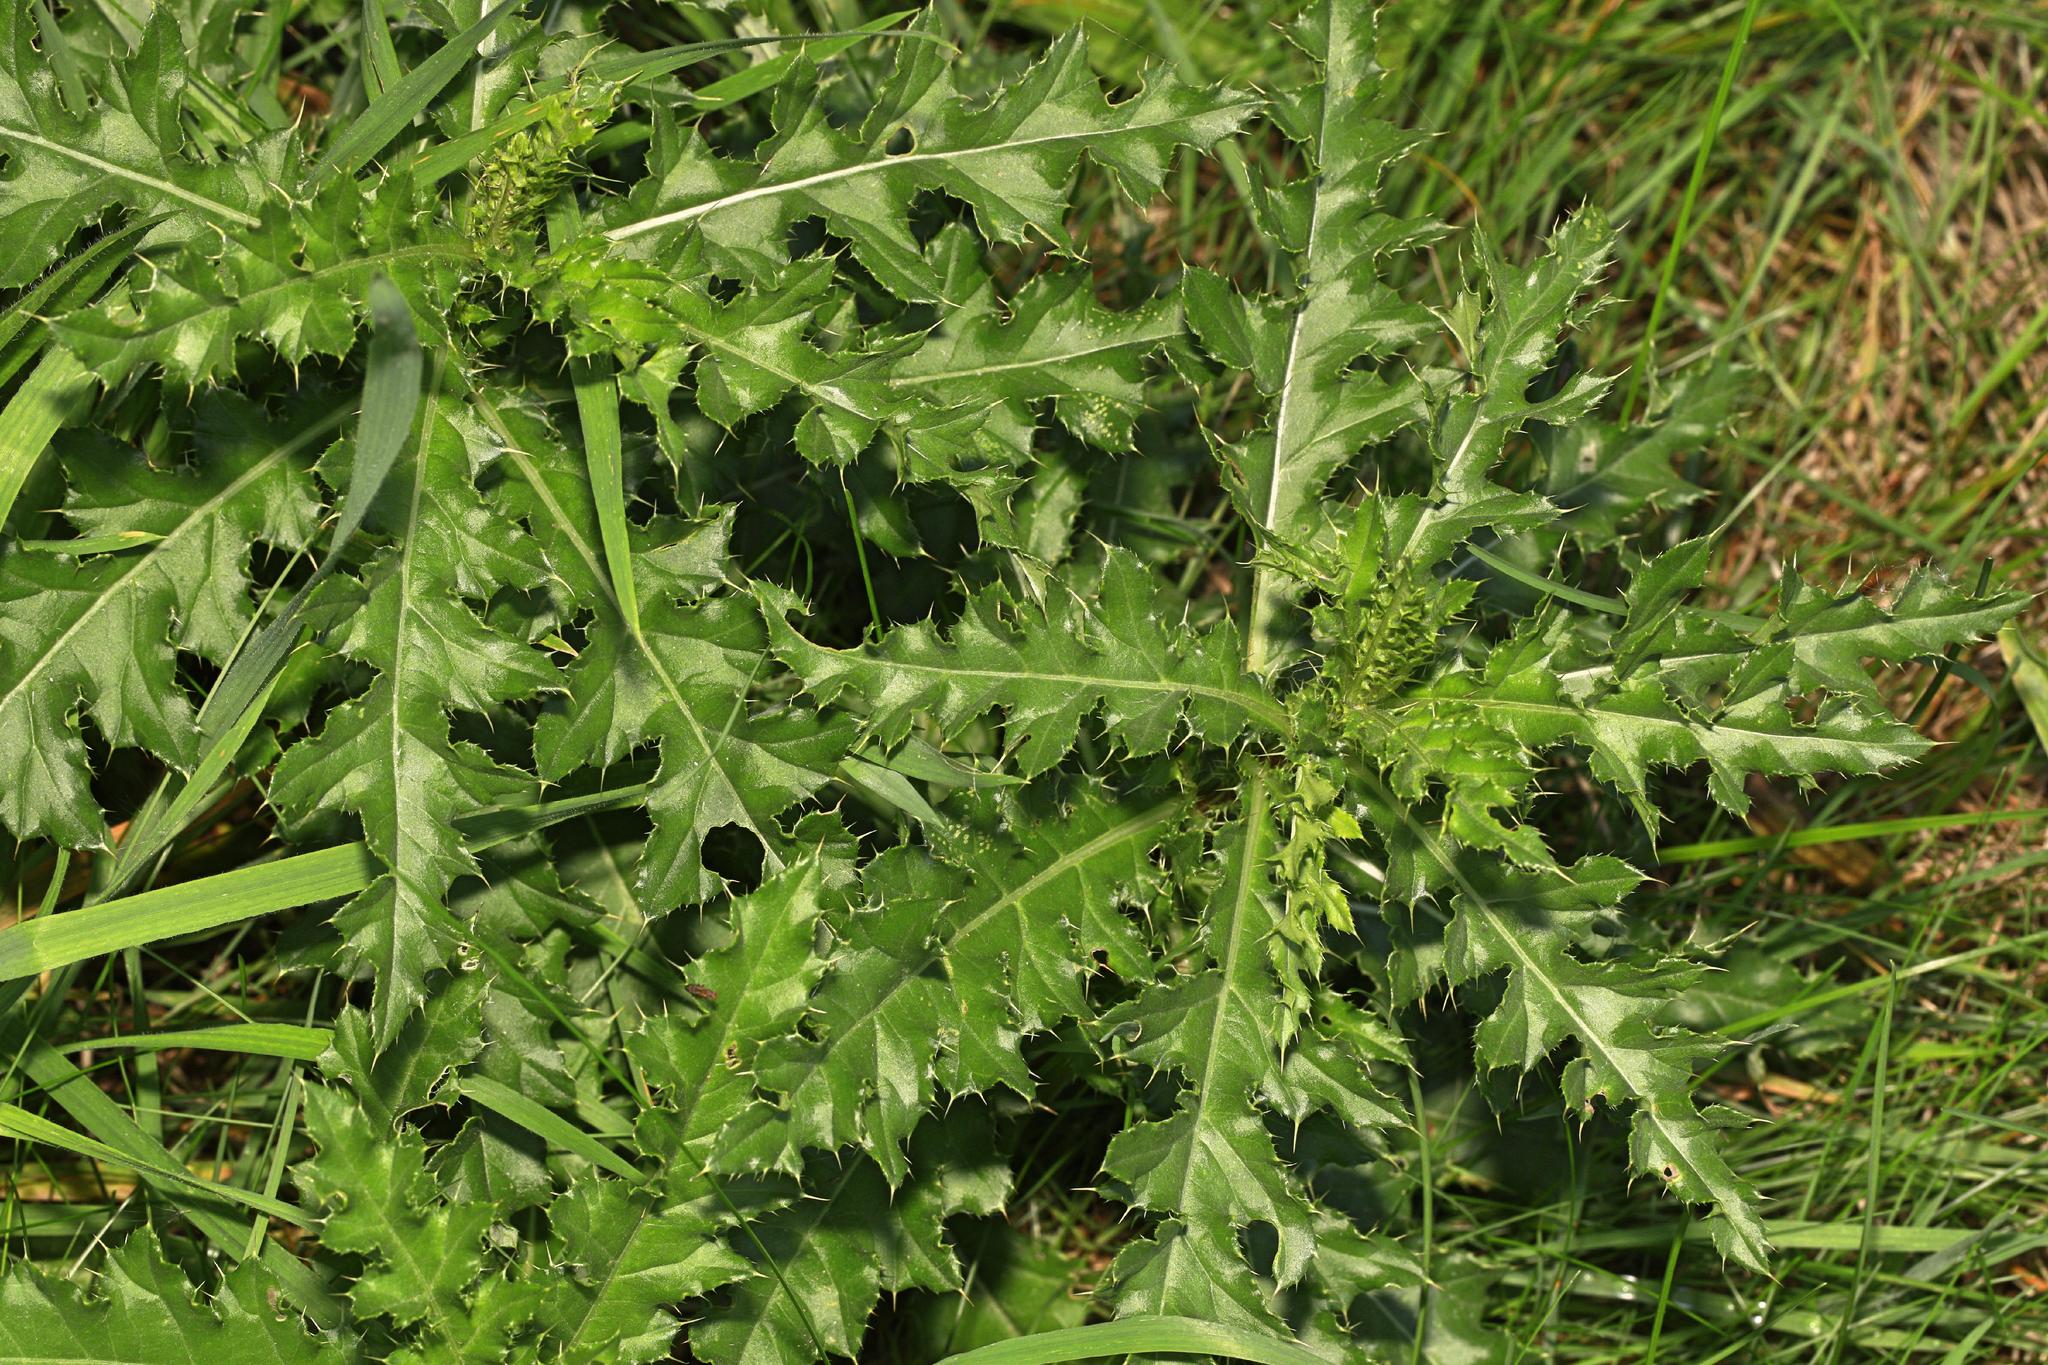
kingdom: Plantae
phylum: Tracheophyta
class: Magnoliopsida
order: Asterales
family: Asteraceae
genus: Cirsium
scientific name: Cirsium arvense
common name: Creeping thistle
